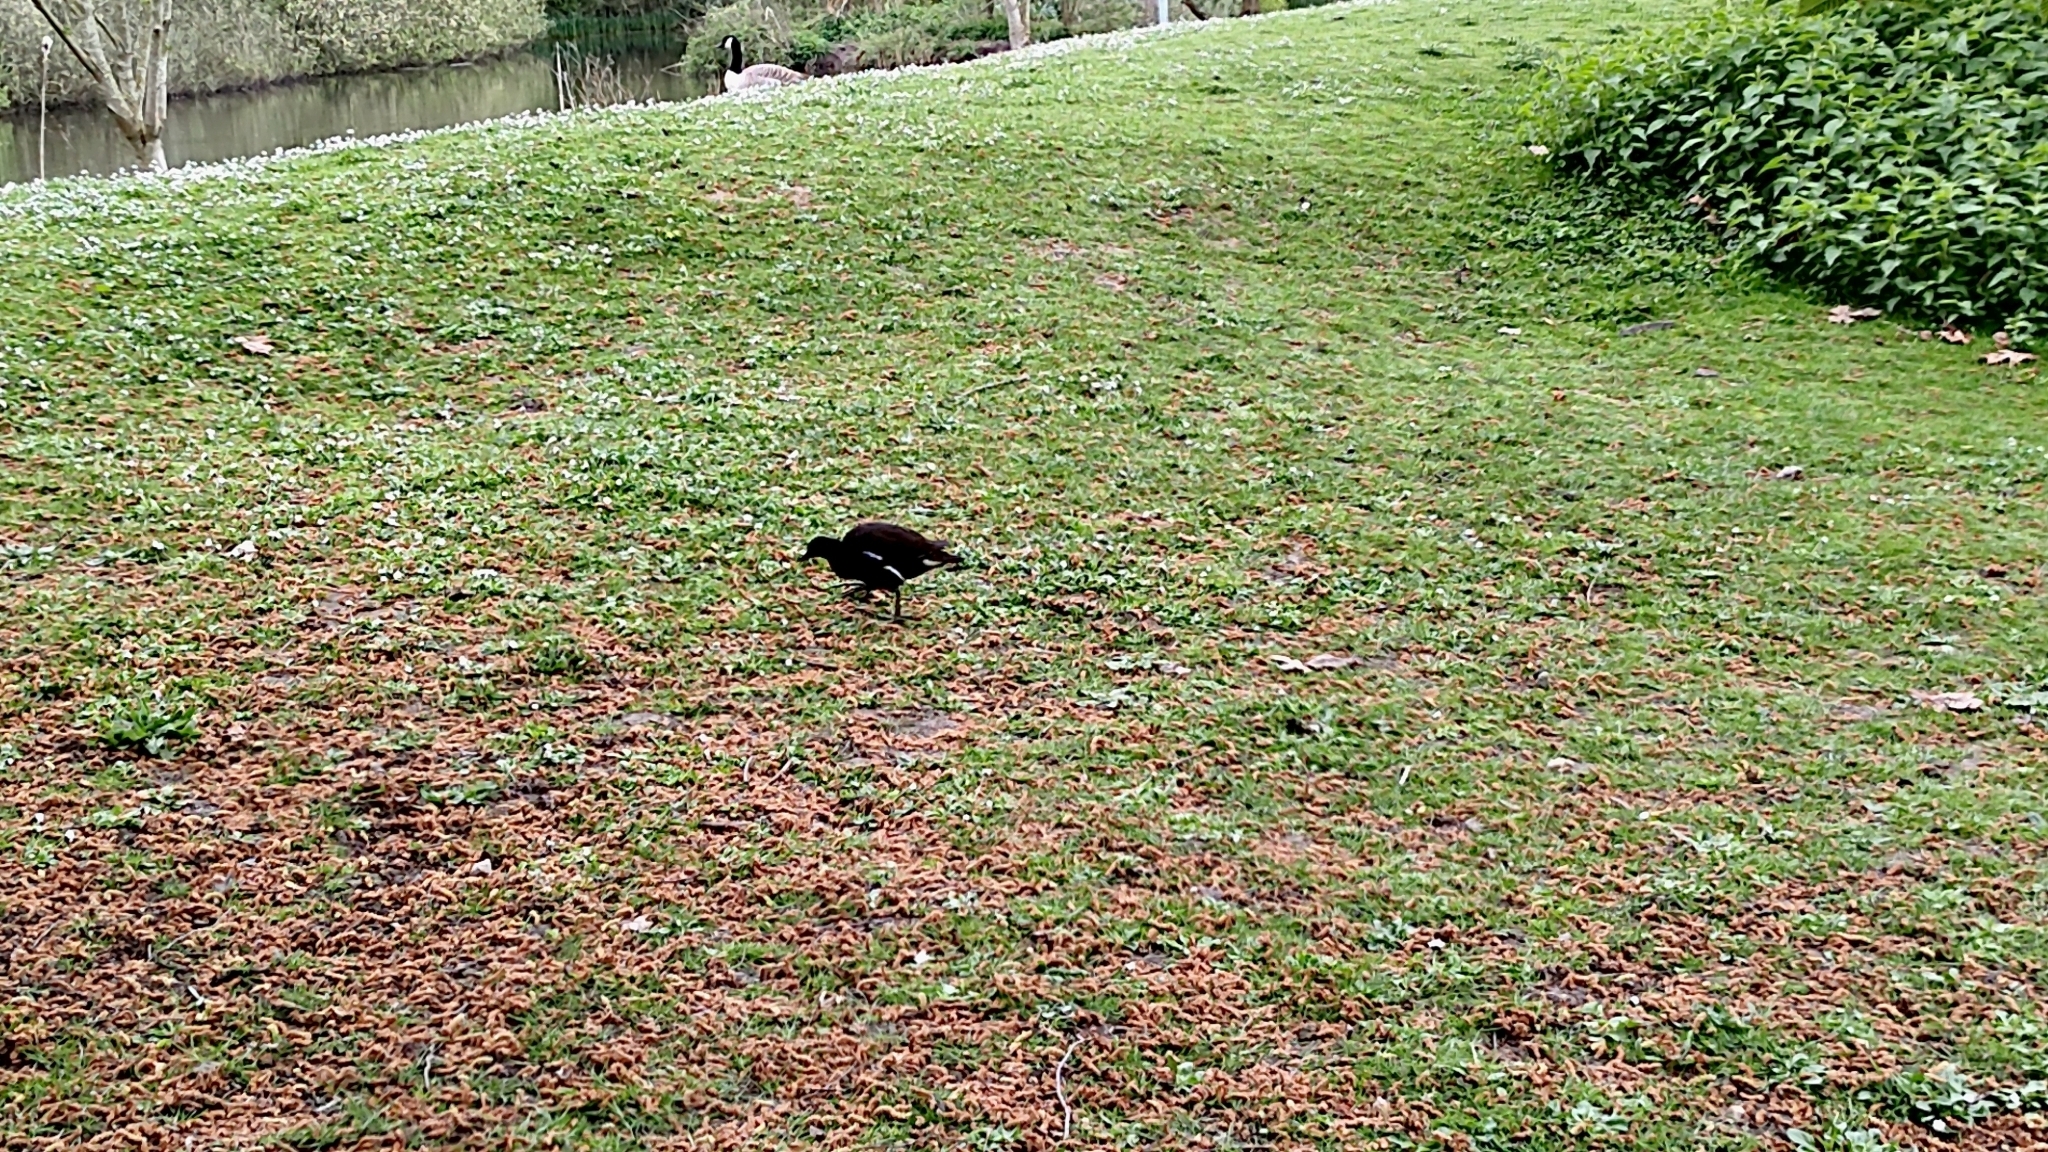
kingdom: Animalia
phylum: Chordata
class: Aves
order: Gruiformes
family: Rallidae
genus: Gallinula
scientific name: Gallinula chloropus
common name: Common moorhen
